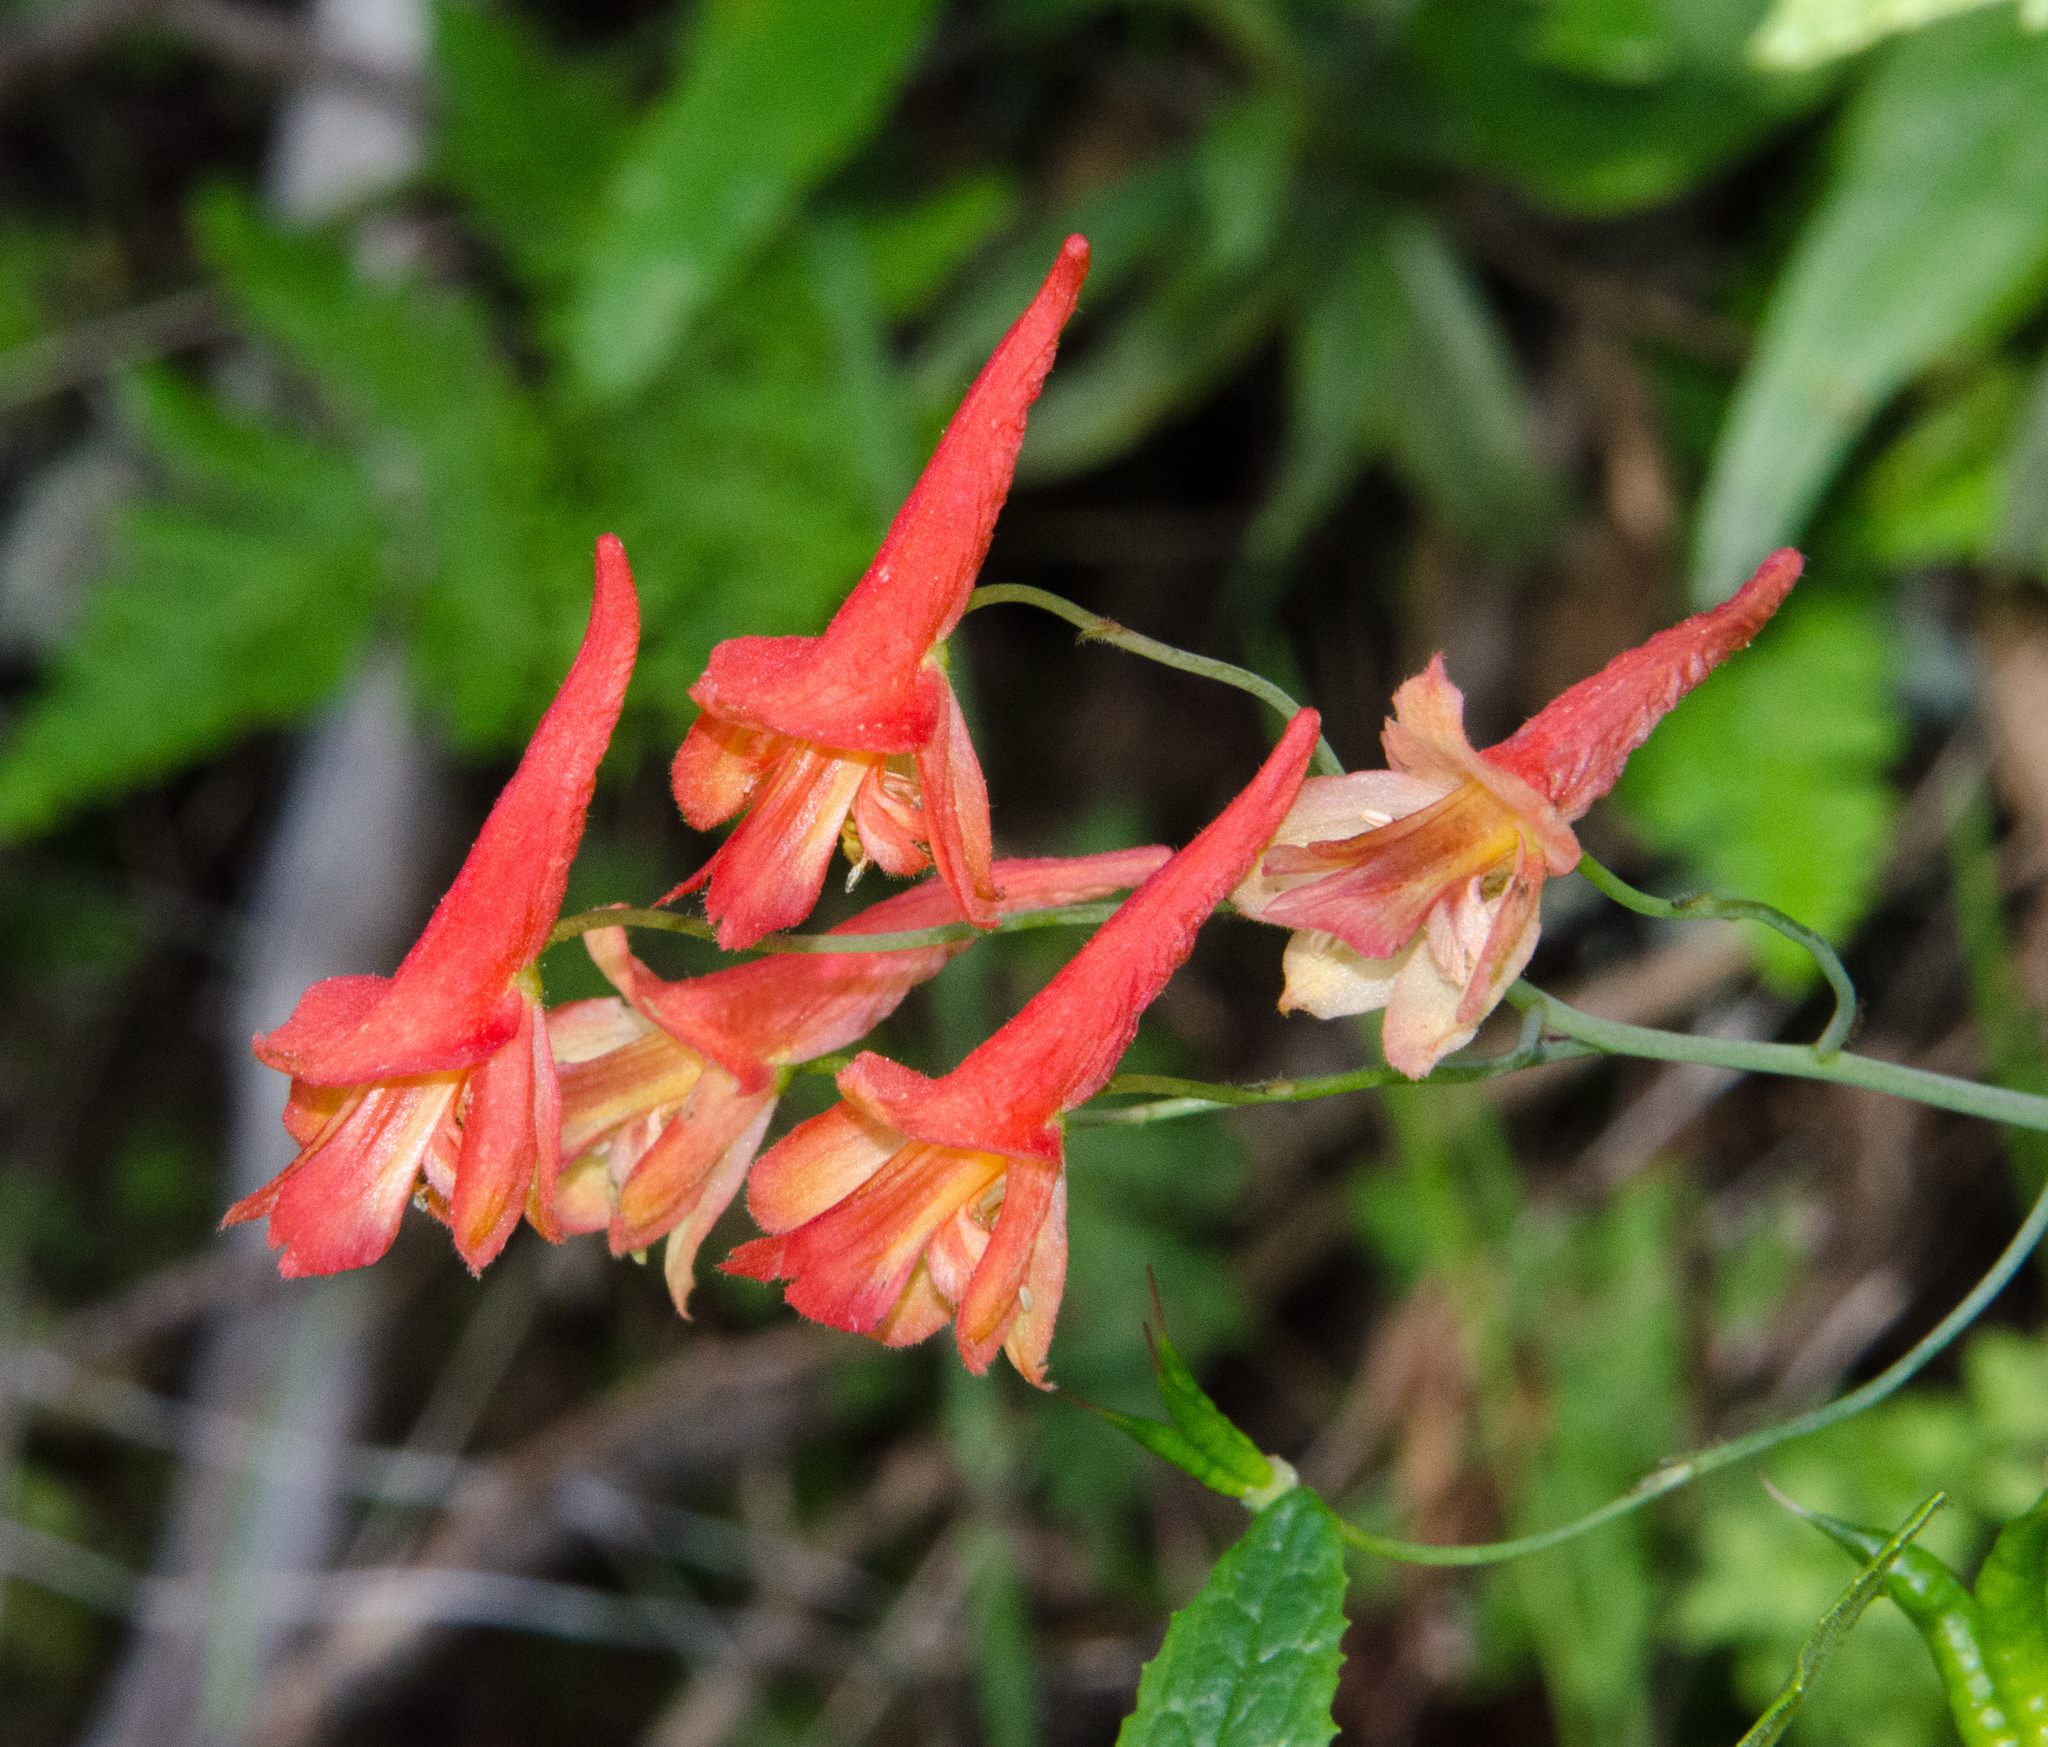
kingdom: Plantae
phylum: Tracheophyta
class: Magnoliopsida
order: Ranunculales
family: Ranunculaceae
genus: Delphinium
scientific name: Delphinium nudicaule
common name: Red larkspur
